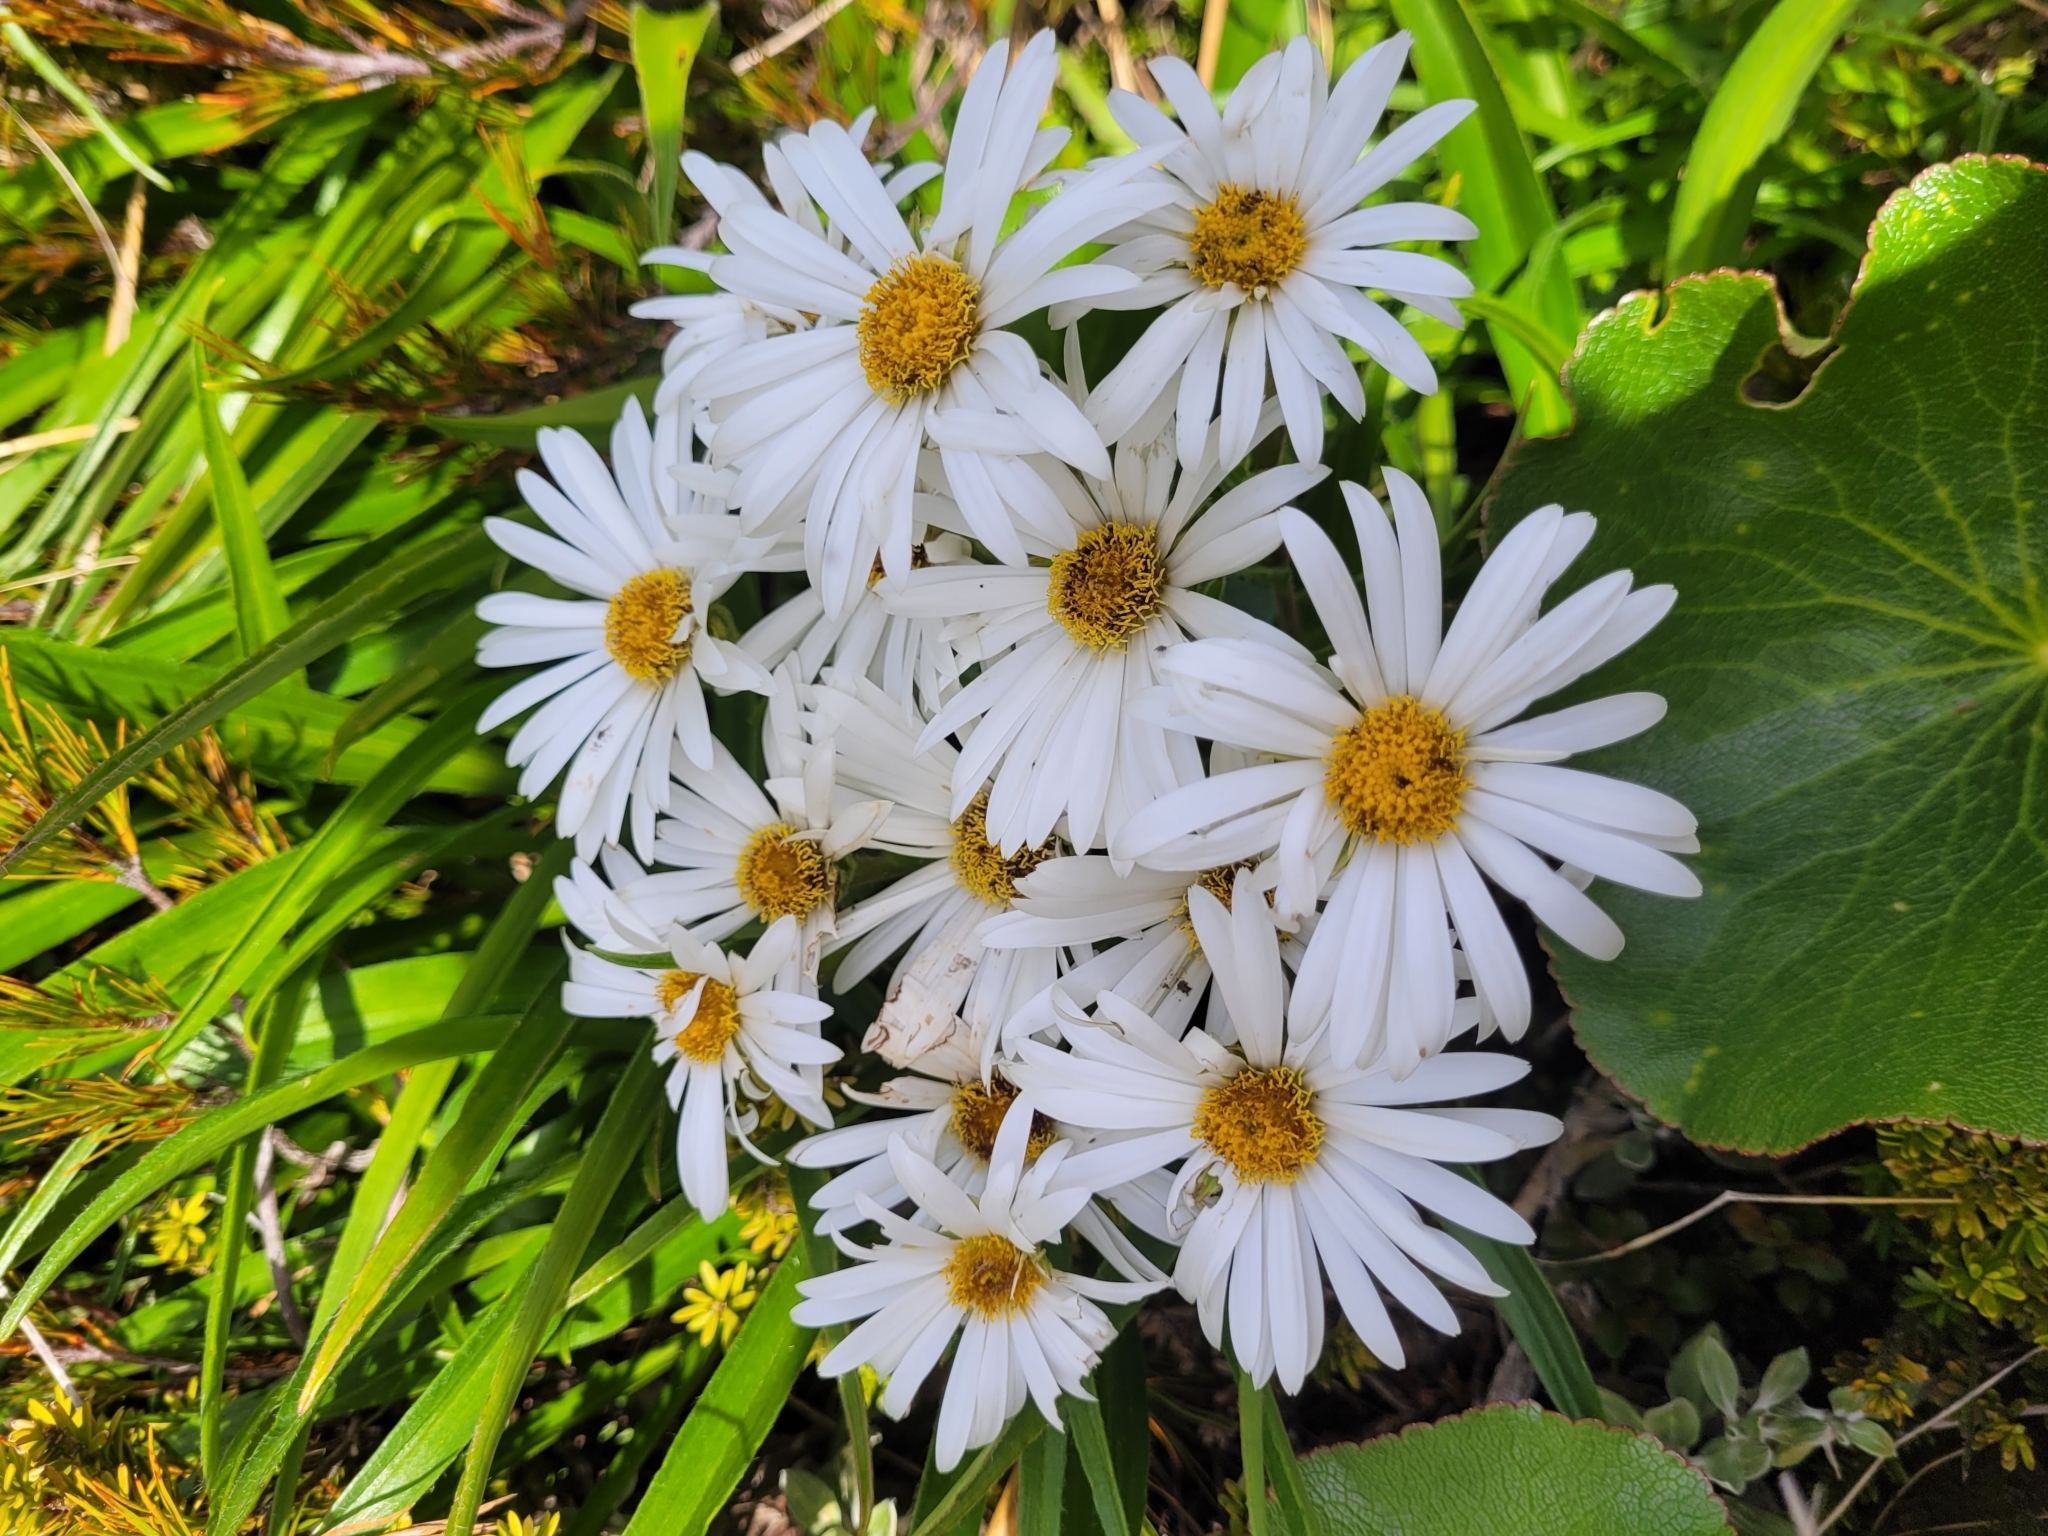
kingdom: Plantae
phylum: Tracheophyta
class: Magnoliopsida
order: Asterales
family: Asteraceae
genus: Dolichoglottis
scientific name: Dolichoglottis scorzoneroides
